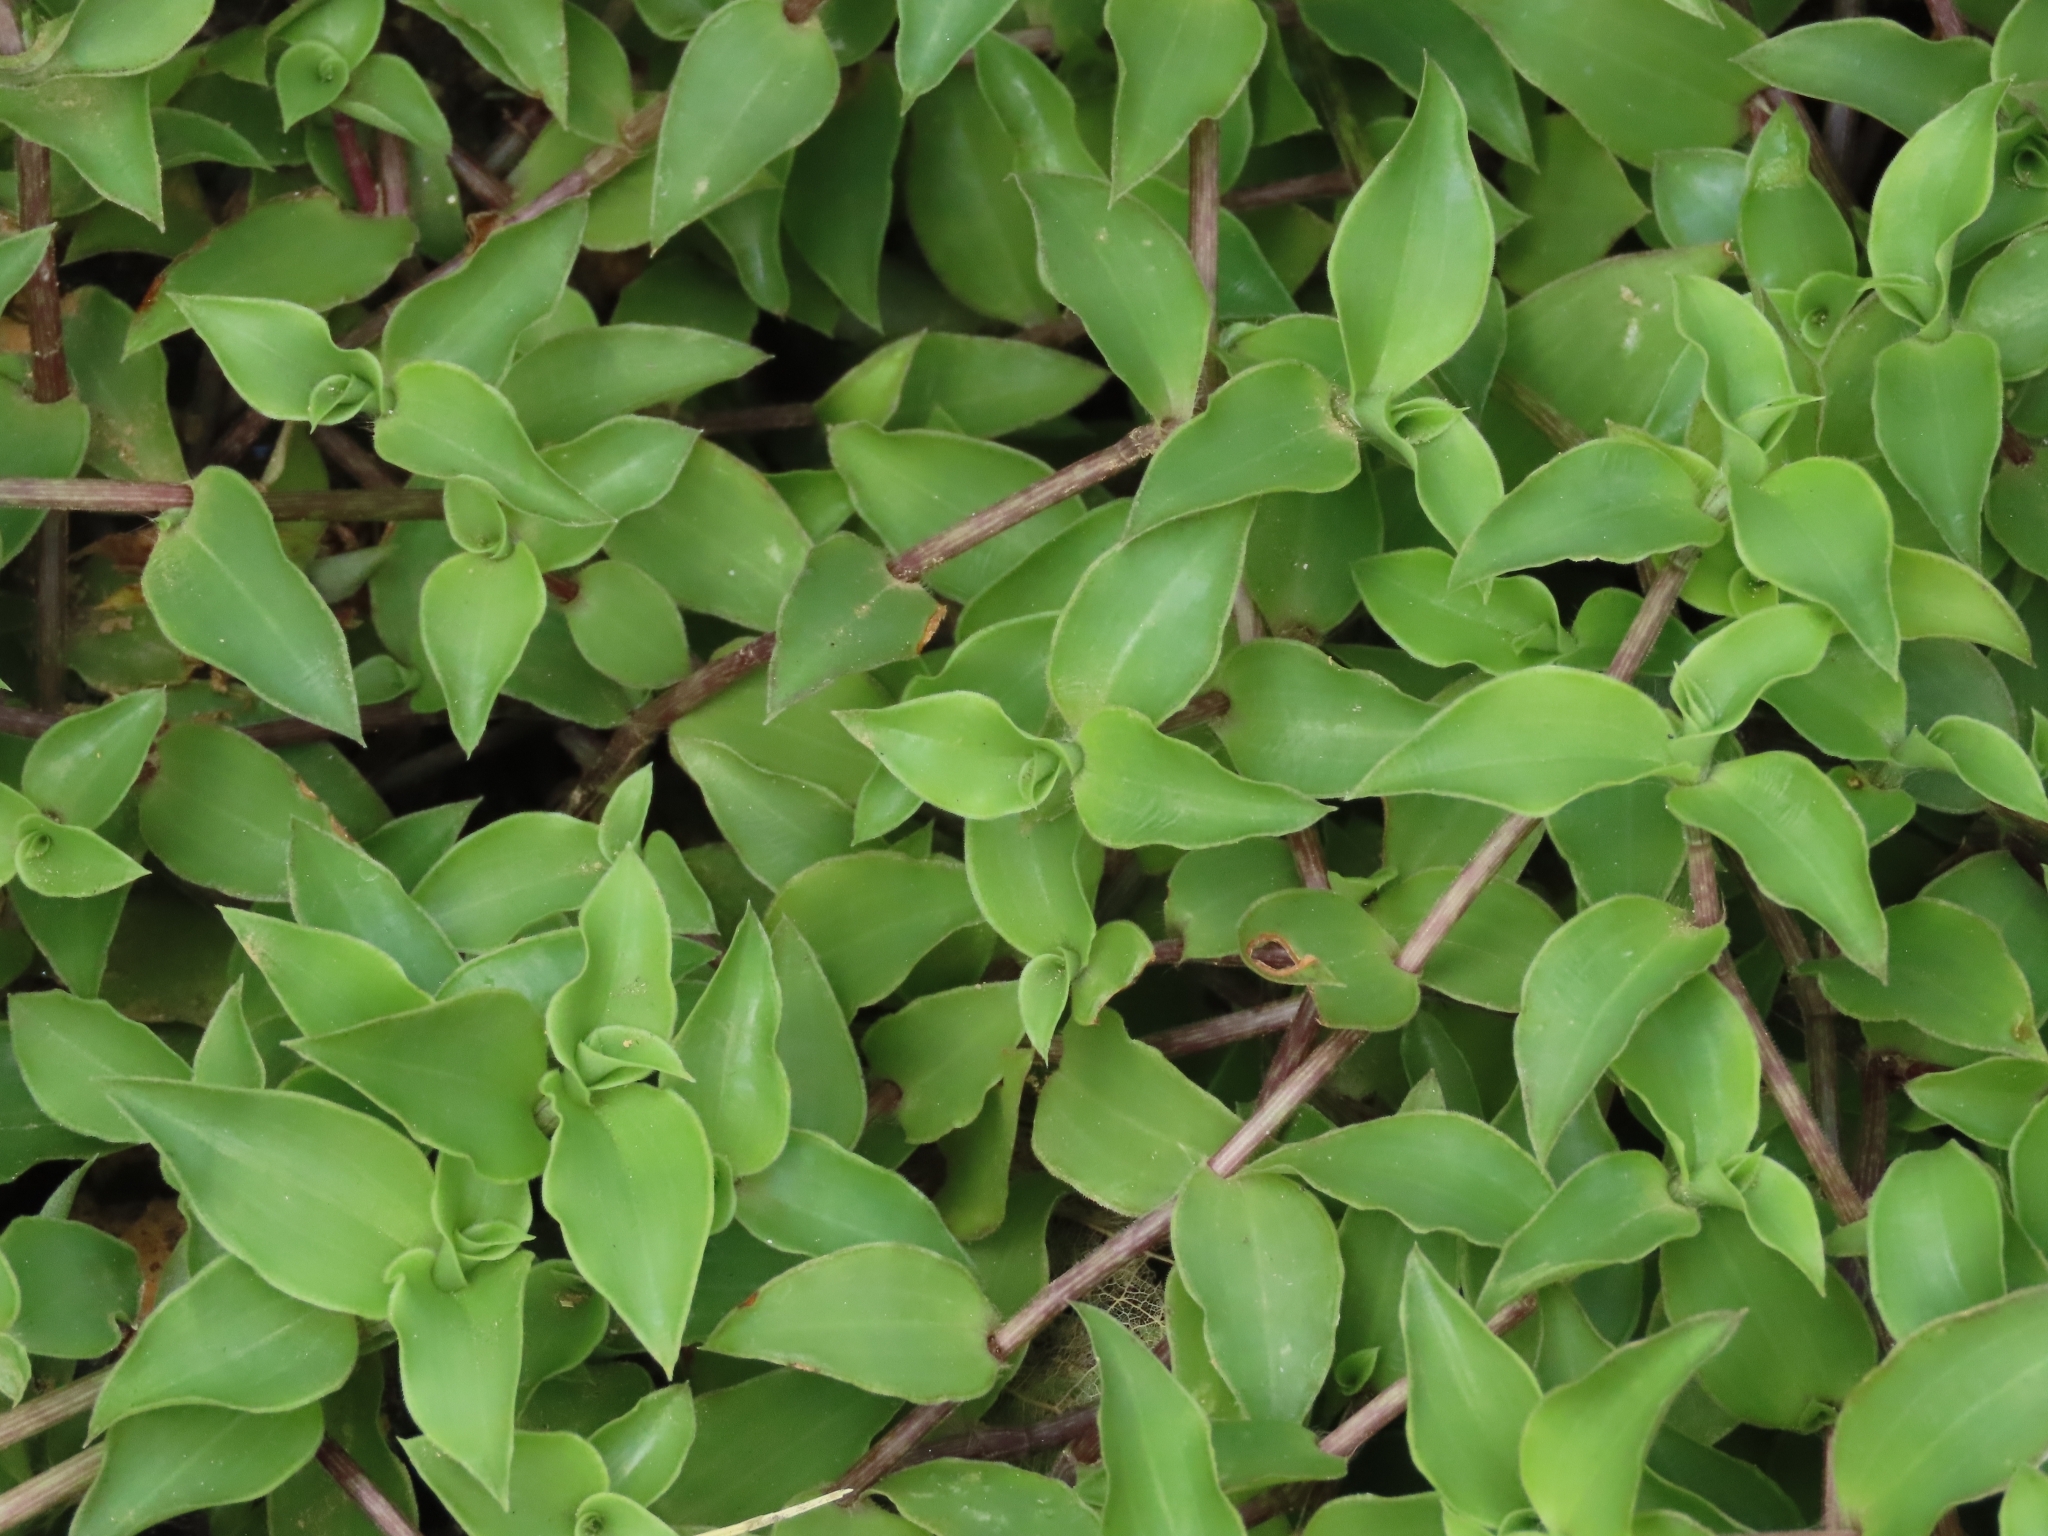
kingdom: Plantae
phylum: Tracheophyta
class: Liliopsida
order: Commelinales
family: Commelinaceae
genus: Callisia
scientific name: Callisia repens
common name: Creeping inchplant
